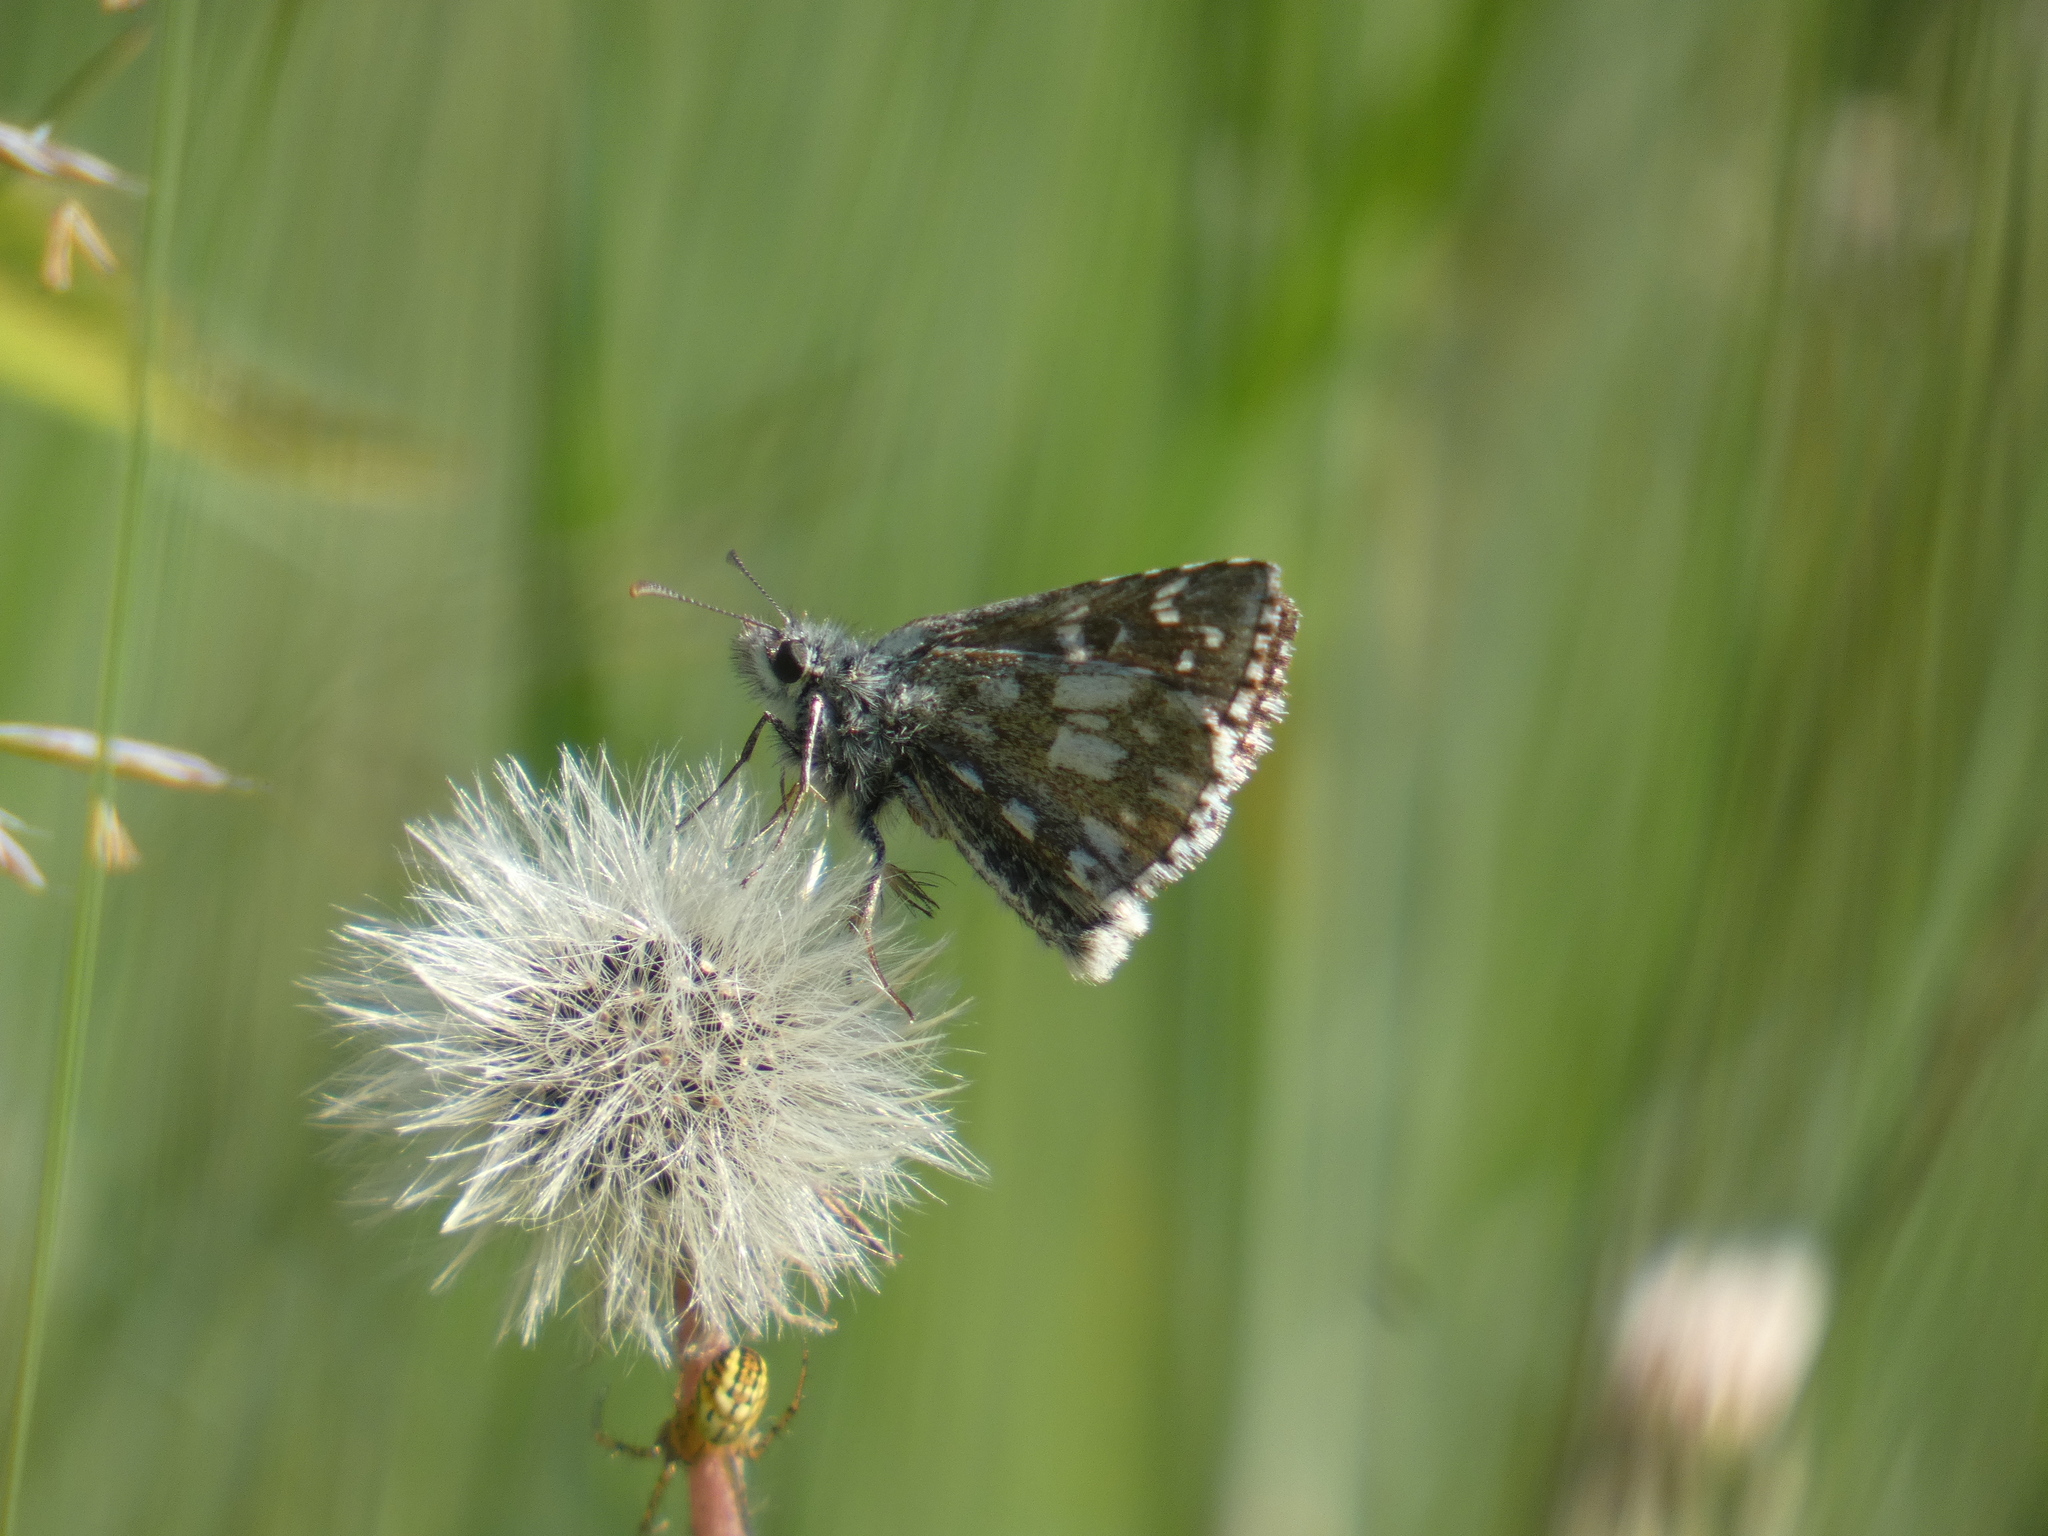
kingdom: Animalia
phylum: Arthropoda
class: Insecta
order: Lepidoptera
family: Hesperiidae
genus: Pyrgus
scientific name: Pyrgus serratulae
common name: Olive skipper
